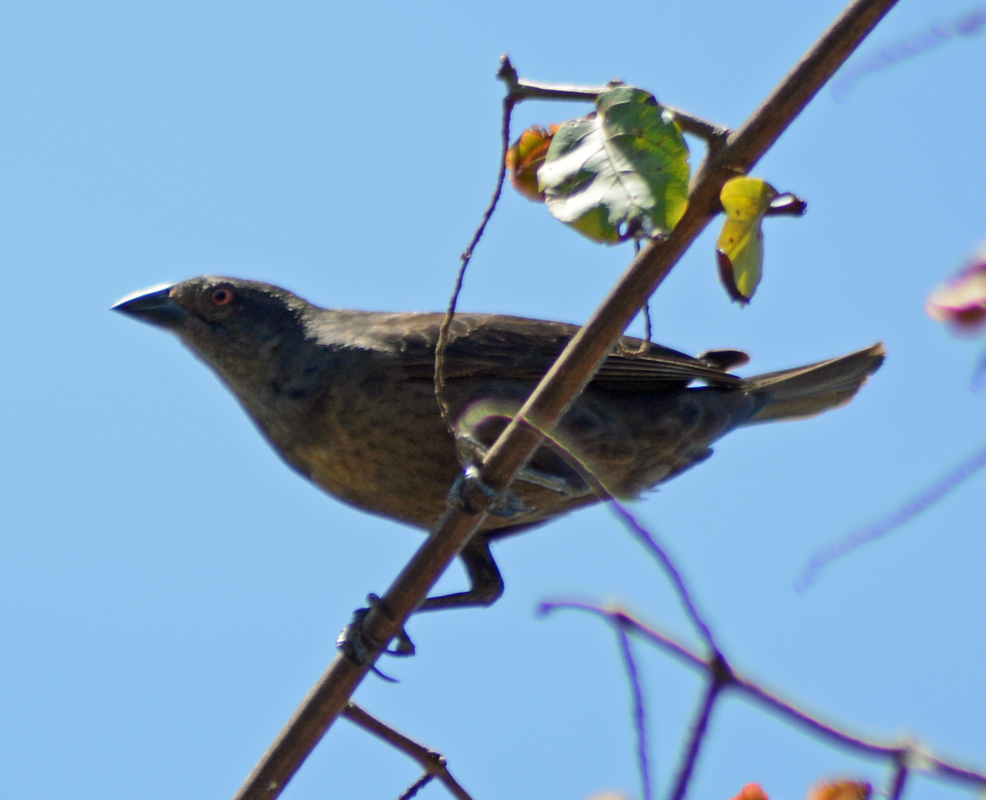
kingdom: Animalia
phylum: Chordata
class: Aves
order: Passeriformes
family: Icteridae
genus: Molothrus
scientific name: Molothrus aeneus
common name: Bronzed cowbird
